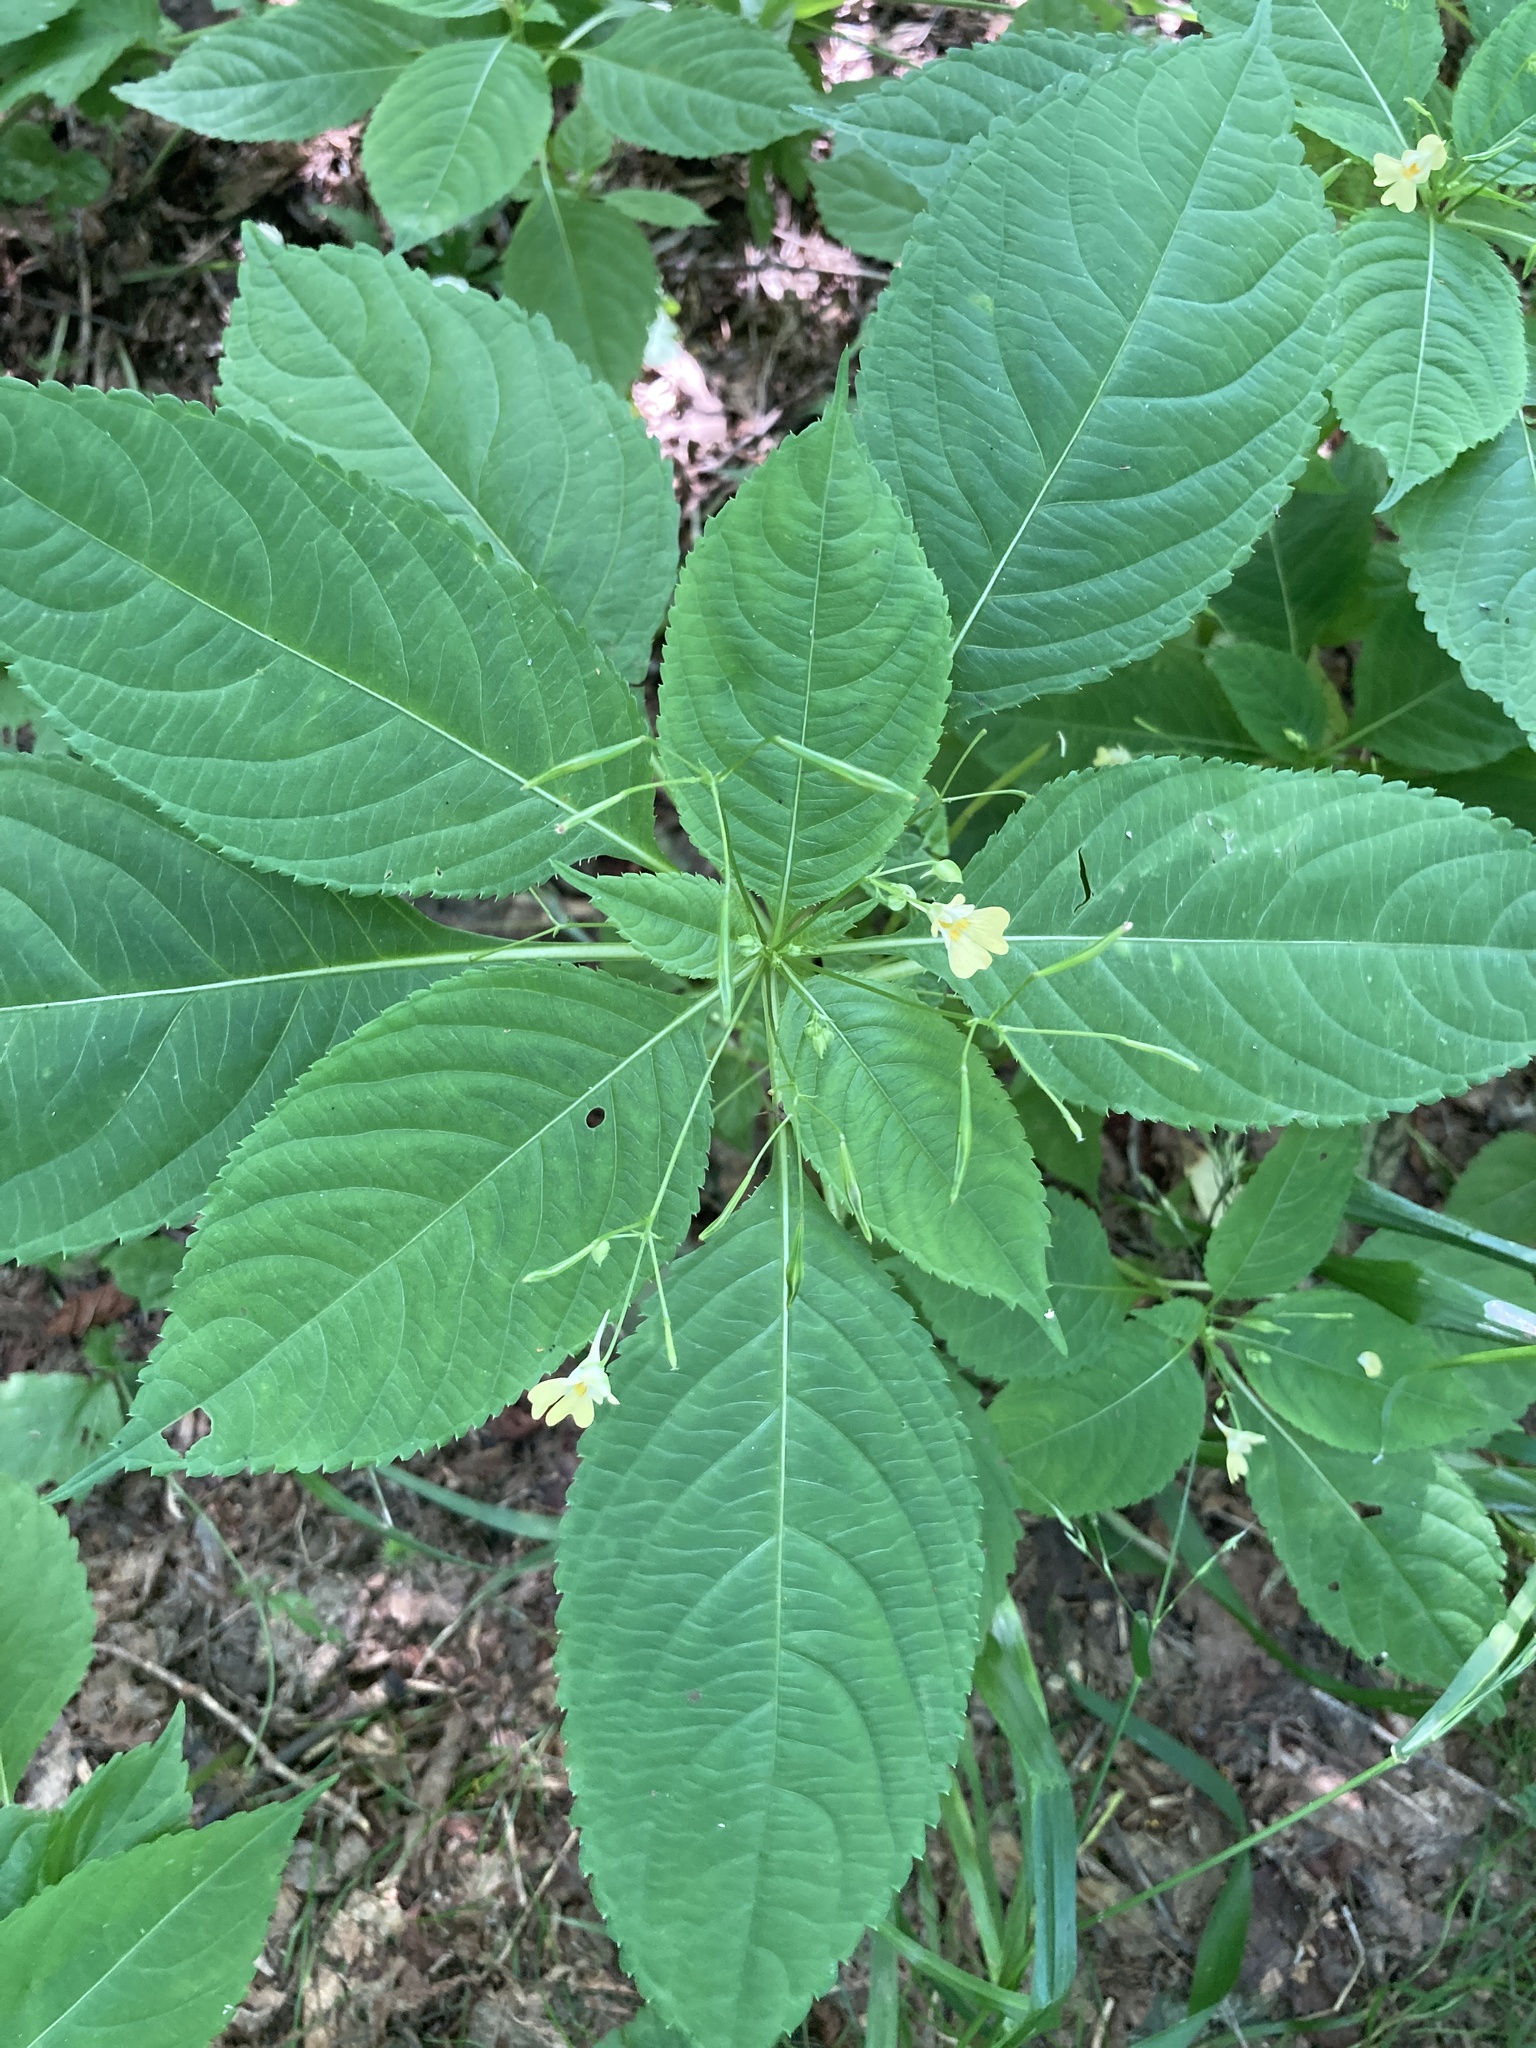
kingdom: Plantae
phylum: Tracheophyta
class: Magnoliopsida
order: Ericales
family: Balsaminaceae
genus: Impatiens
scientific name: Impatiens parviflora
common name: Small balsam
